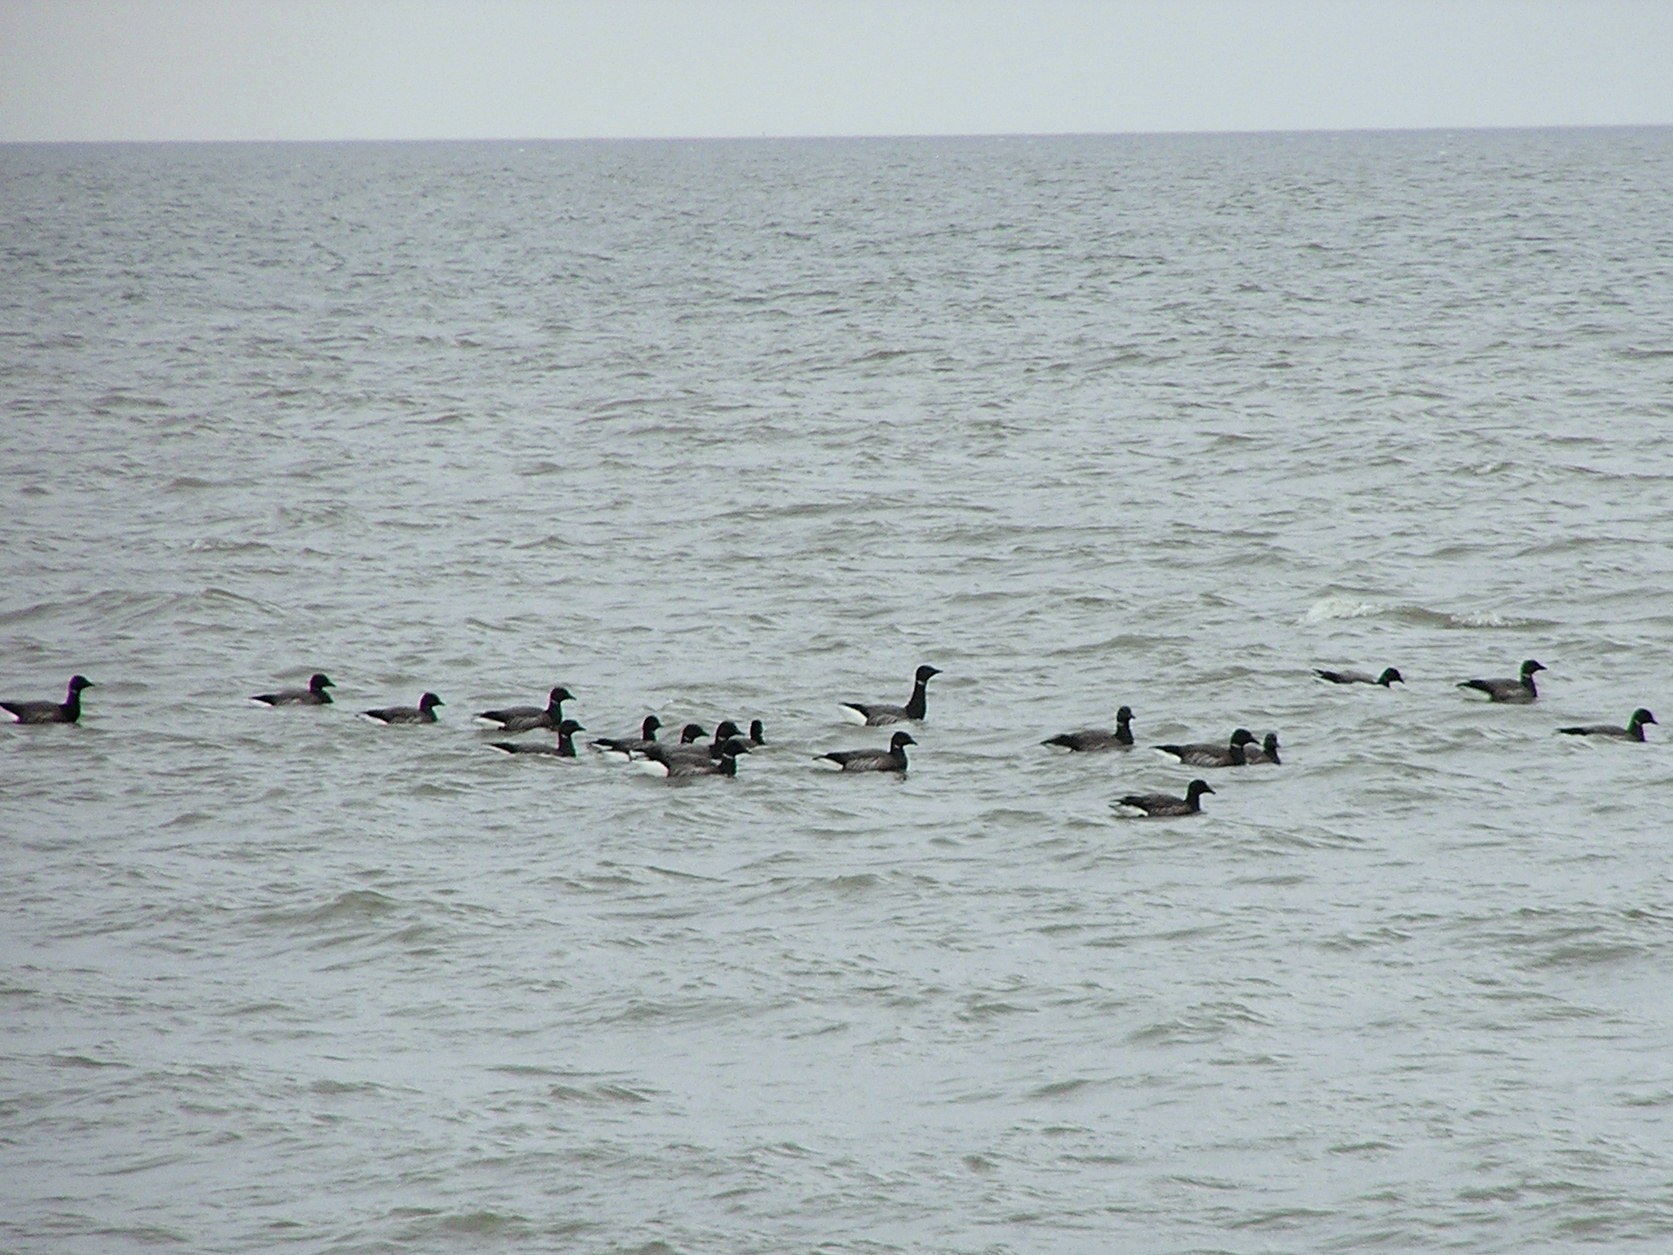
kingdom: Animalia
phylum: Chordata
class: Aves
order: Anseriformes
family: Anatidae
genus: Branta
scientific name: Branta bernicla
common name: Brant goose
